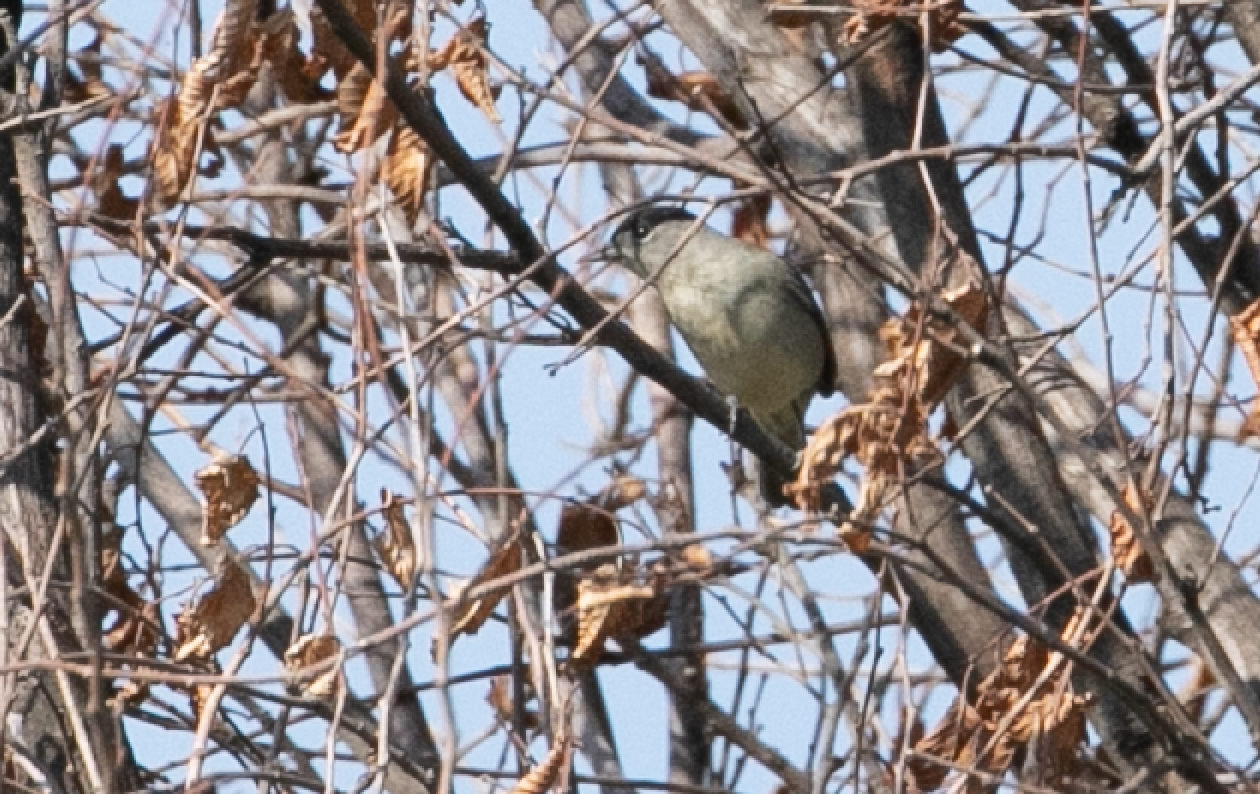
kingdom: Animalia
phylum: Chordata
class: Aves
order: Passeriformes
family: Sylviidae
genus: Sylvia
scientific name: Sylvia atricapilla
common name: Eurasian blackcap
